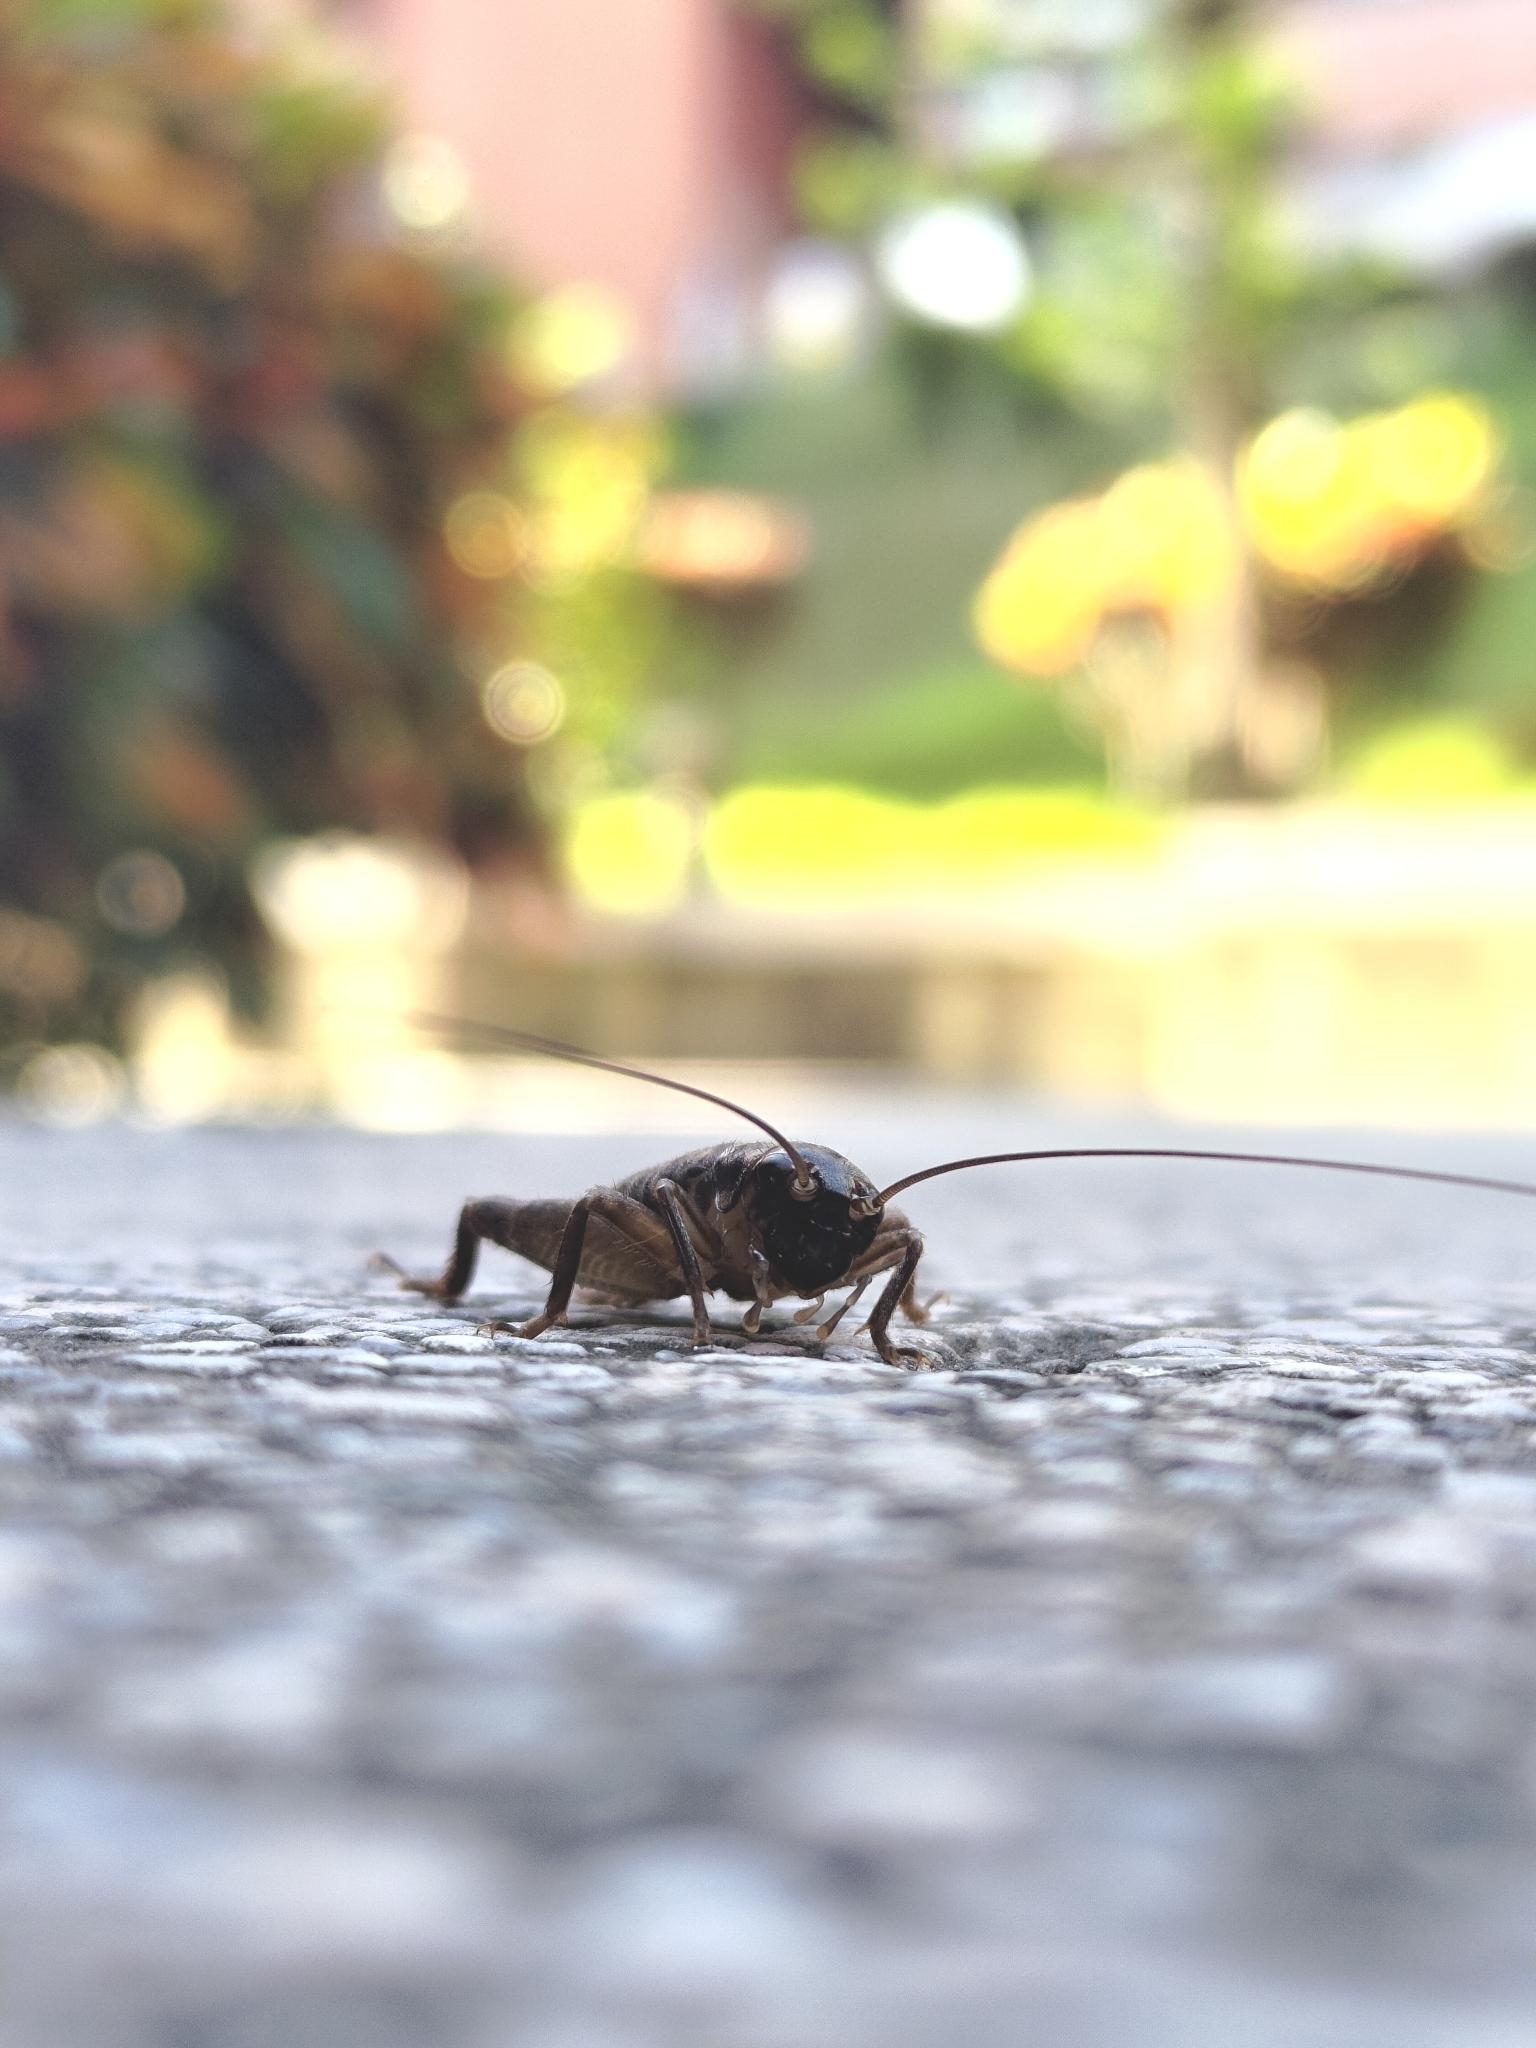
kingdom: Animalia
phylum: Arthropoda
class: Insecta
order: Orthoptera
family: Gryllidae
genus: Duolandrevus
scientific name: Duolandrevus coulonianus
